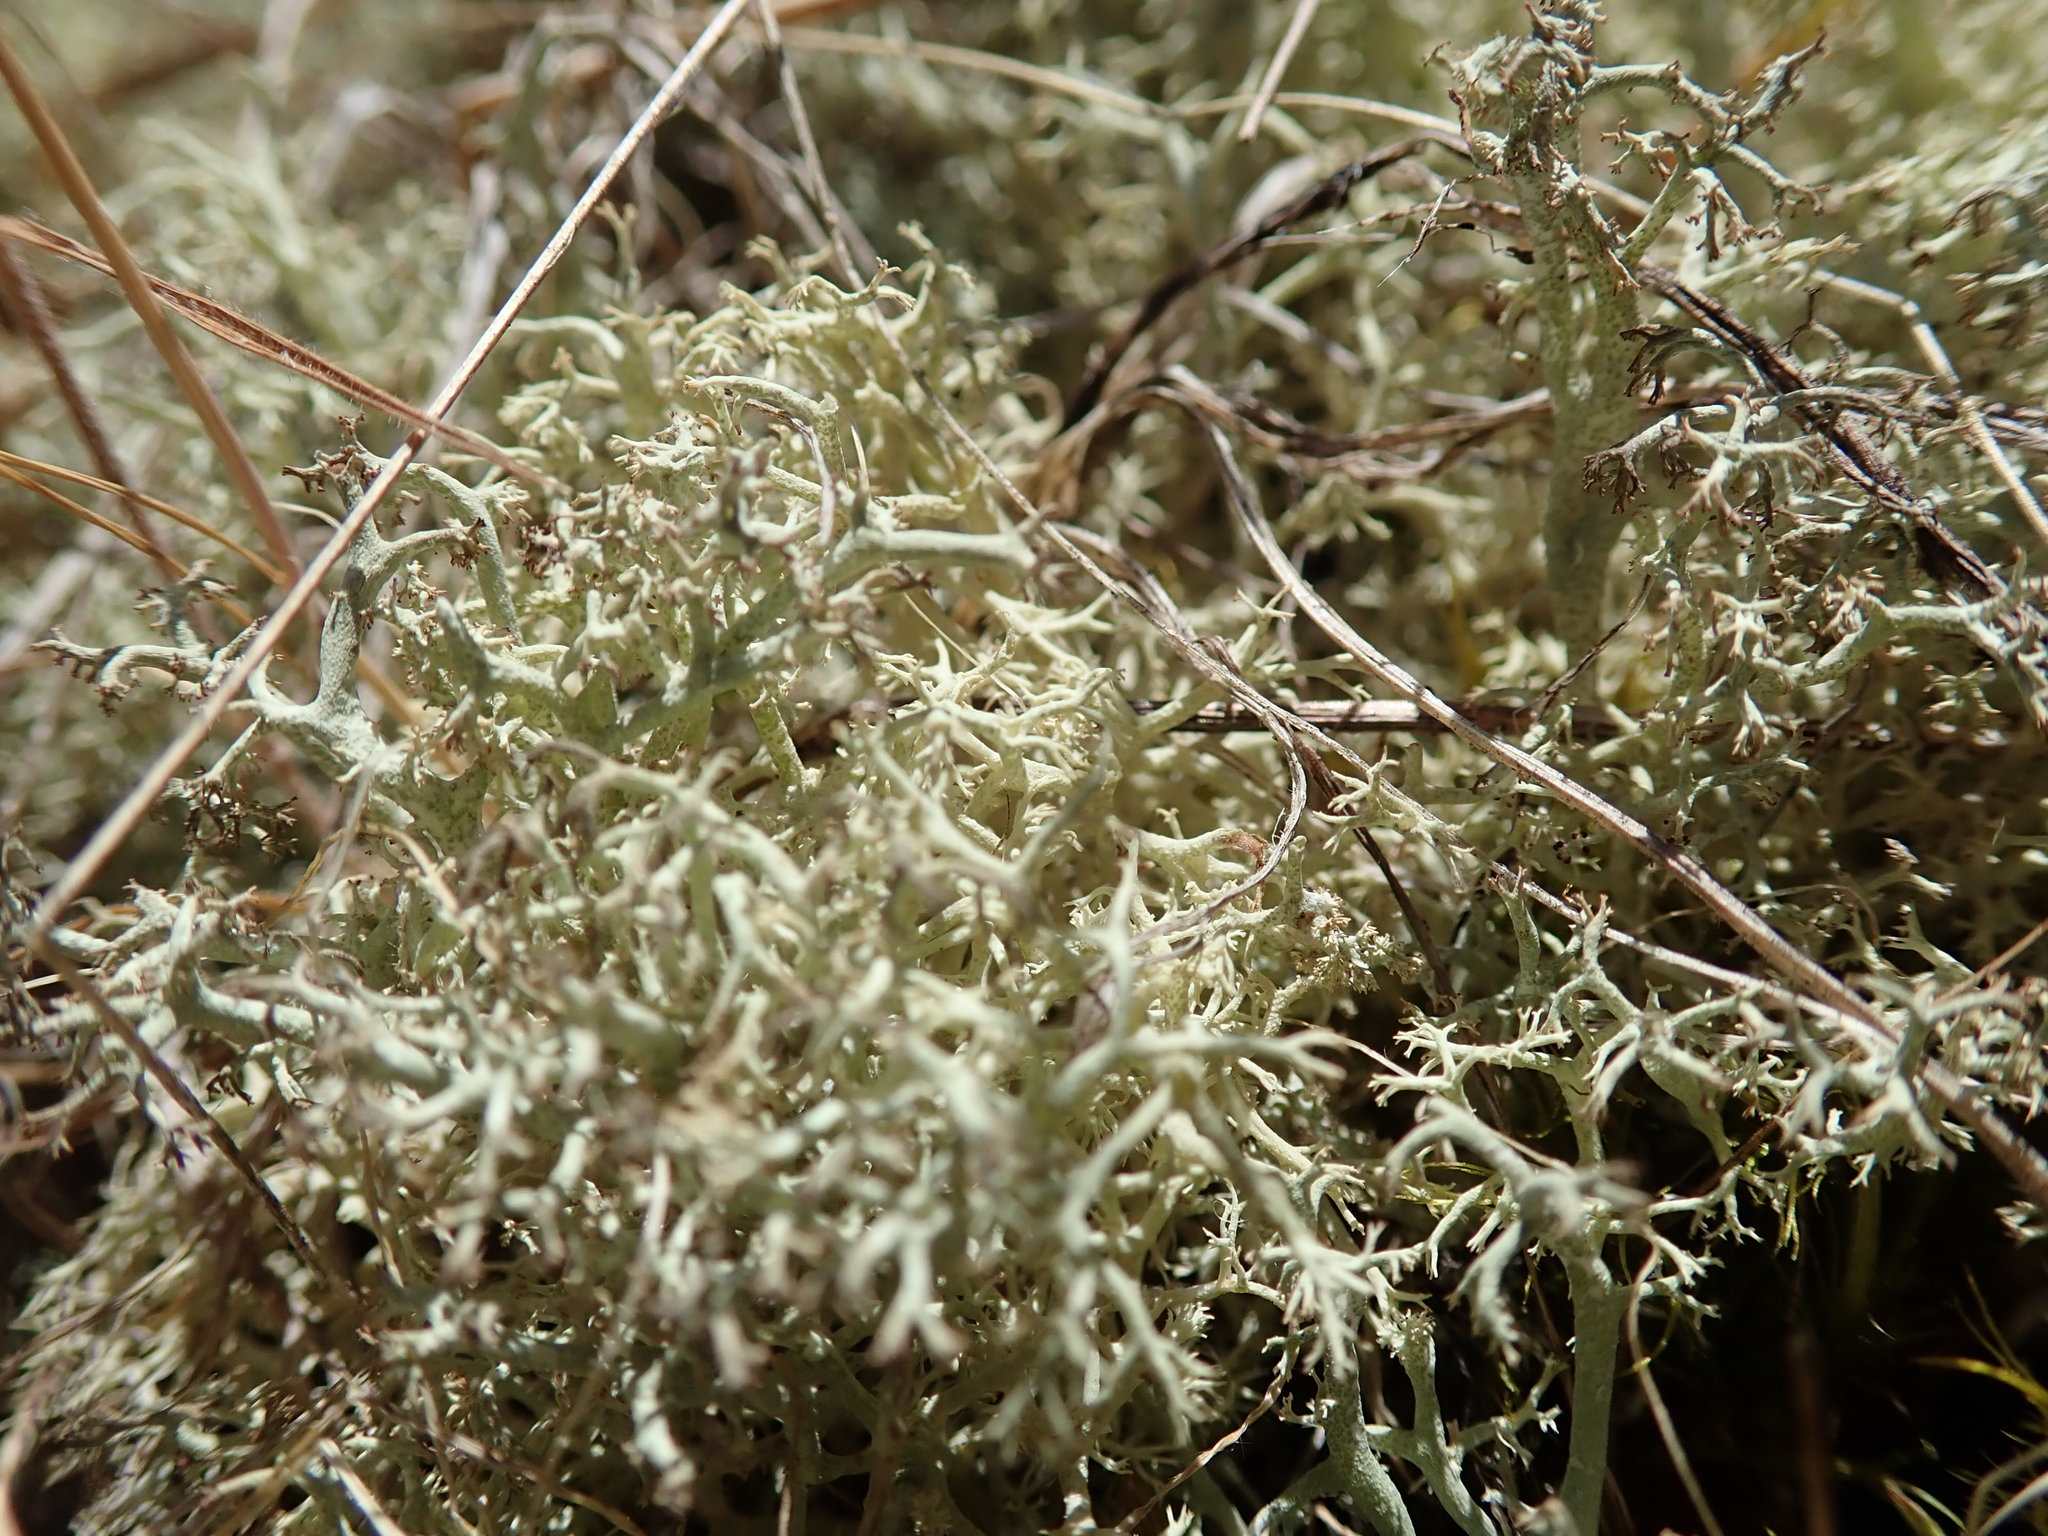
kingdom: Fungi
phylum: Ascomycota
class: Lecanoromycetes
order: Lecanorales
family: Cladoniaceae
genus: Cladonia
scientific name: Cladonia portentosa
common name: Reindeer lichen
